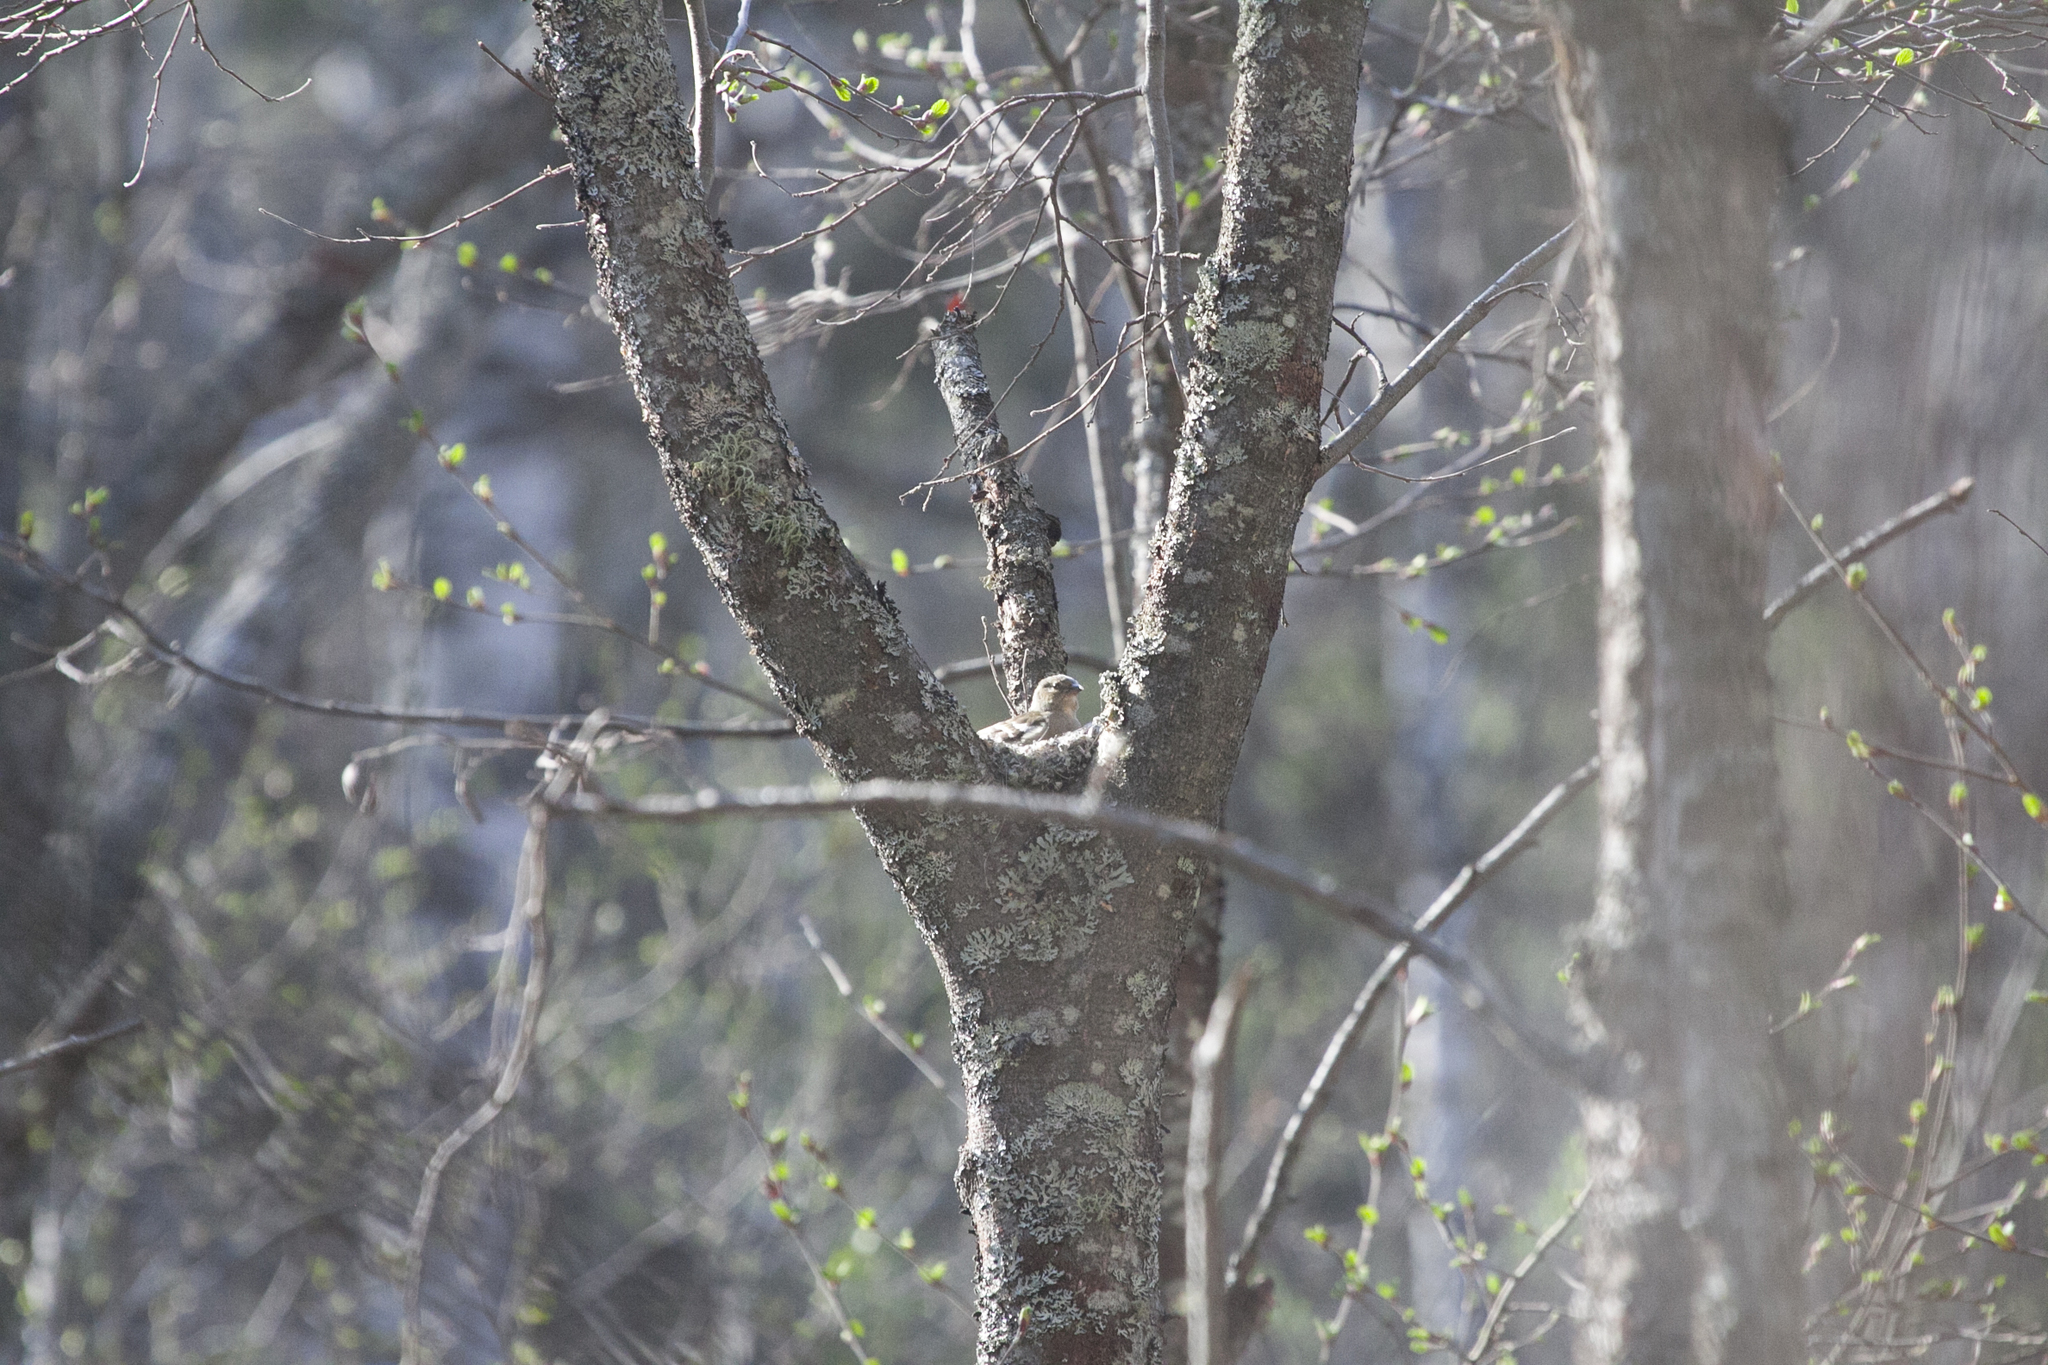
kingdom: Animalia
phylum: Chordata
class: Aves
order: Passeriformes
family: Fringillidae
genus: Fringilla
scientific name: Fringilla coelebs
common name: Common chaffinch
